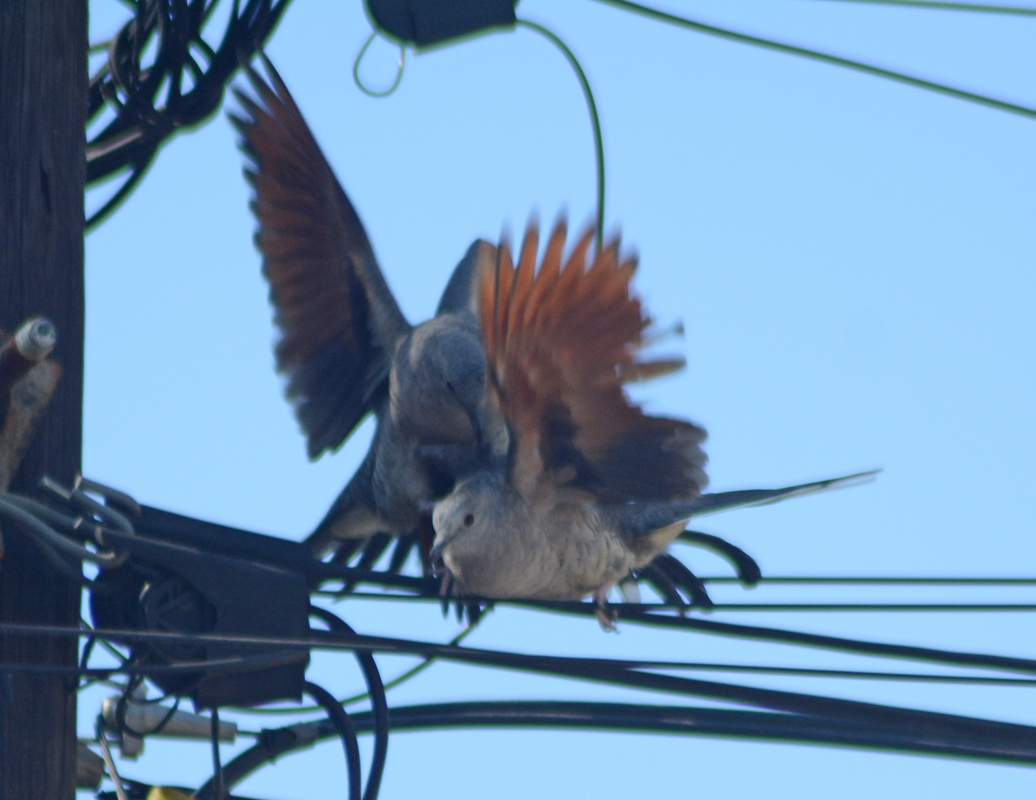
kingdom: Animalia
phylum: Chordata
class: Aves
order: Columbiformes
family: Columbidae
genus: Columbina
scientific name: Columbina inca
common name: Inca dove
